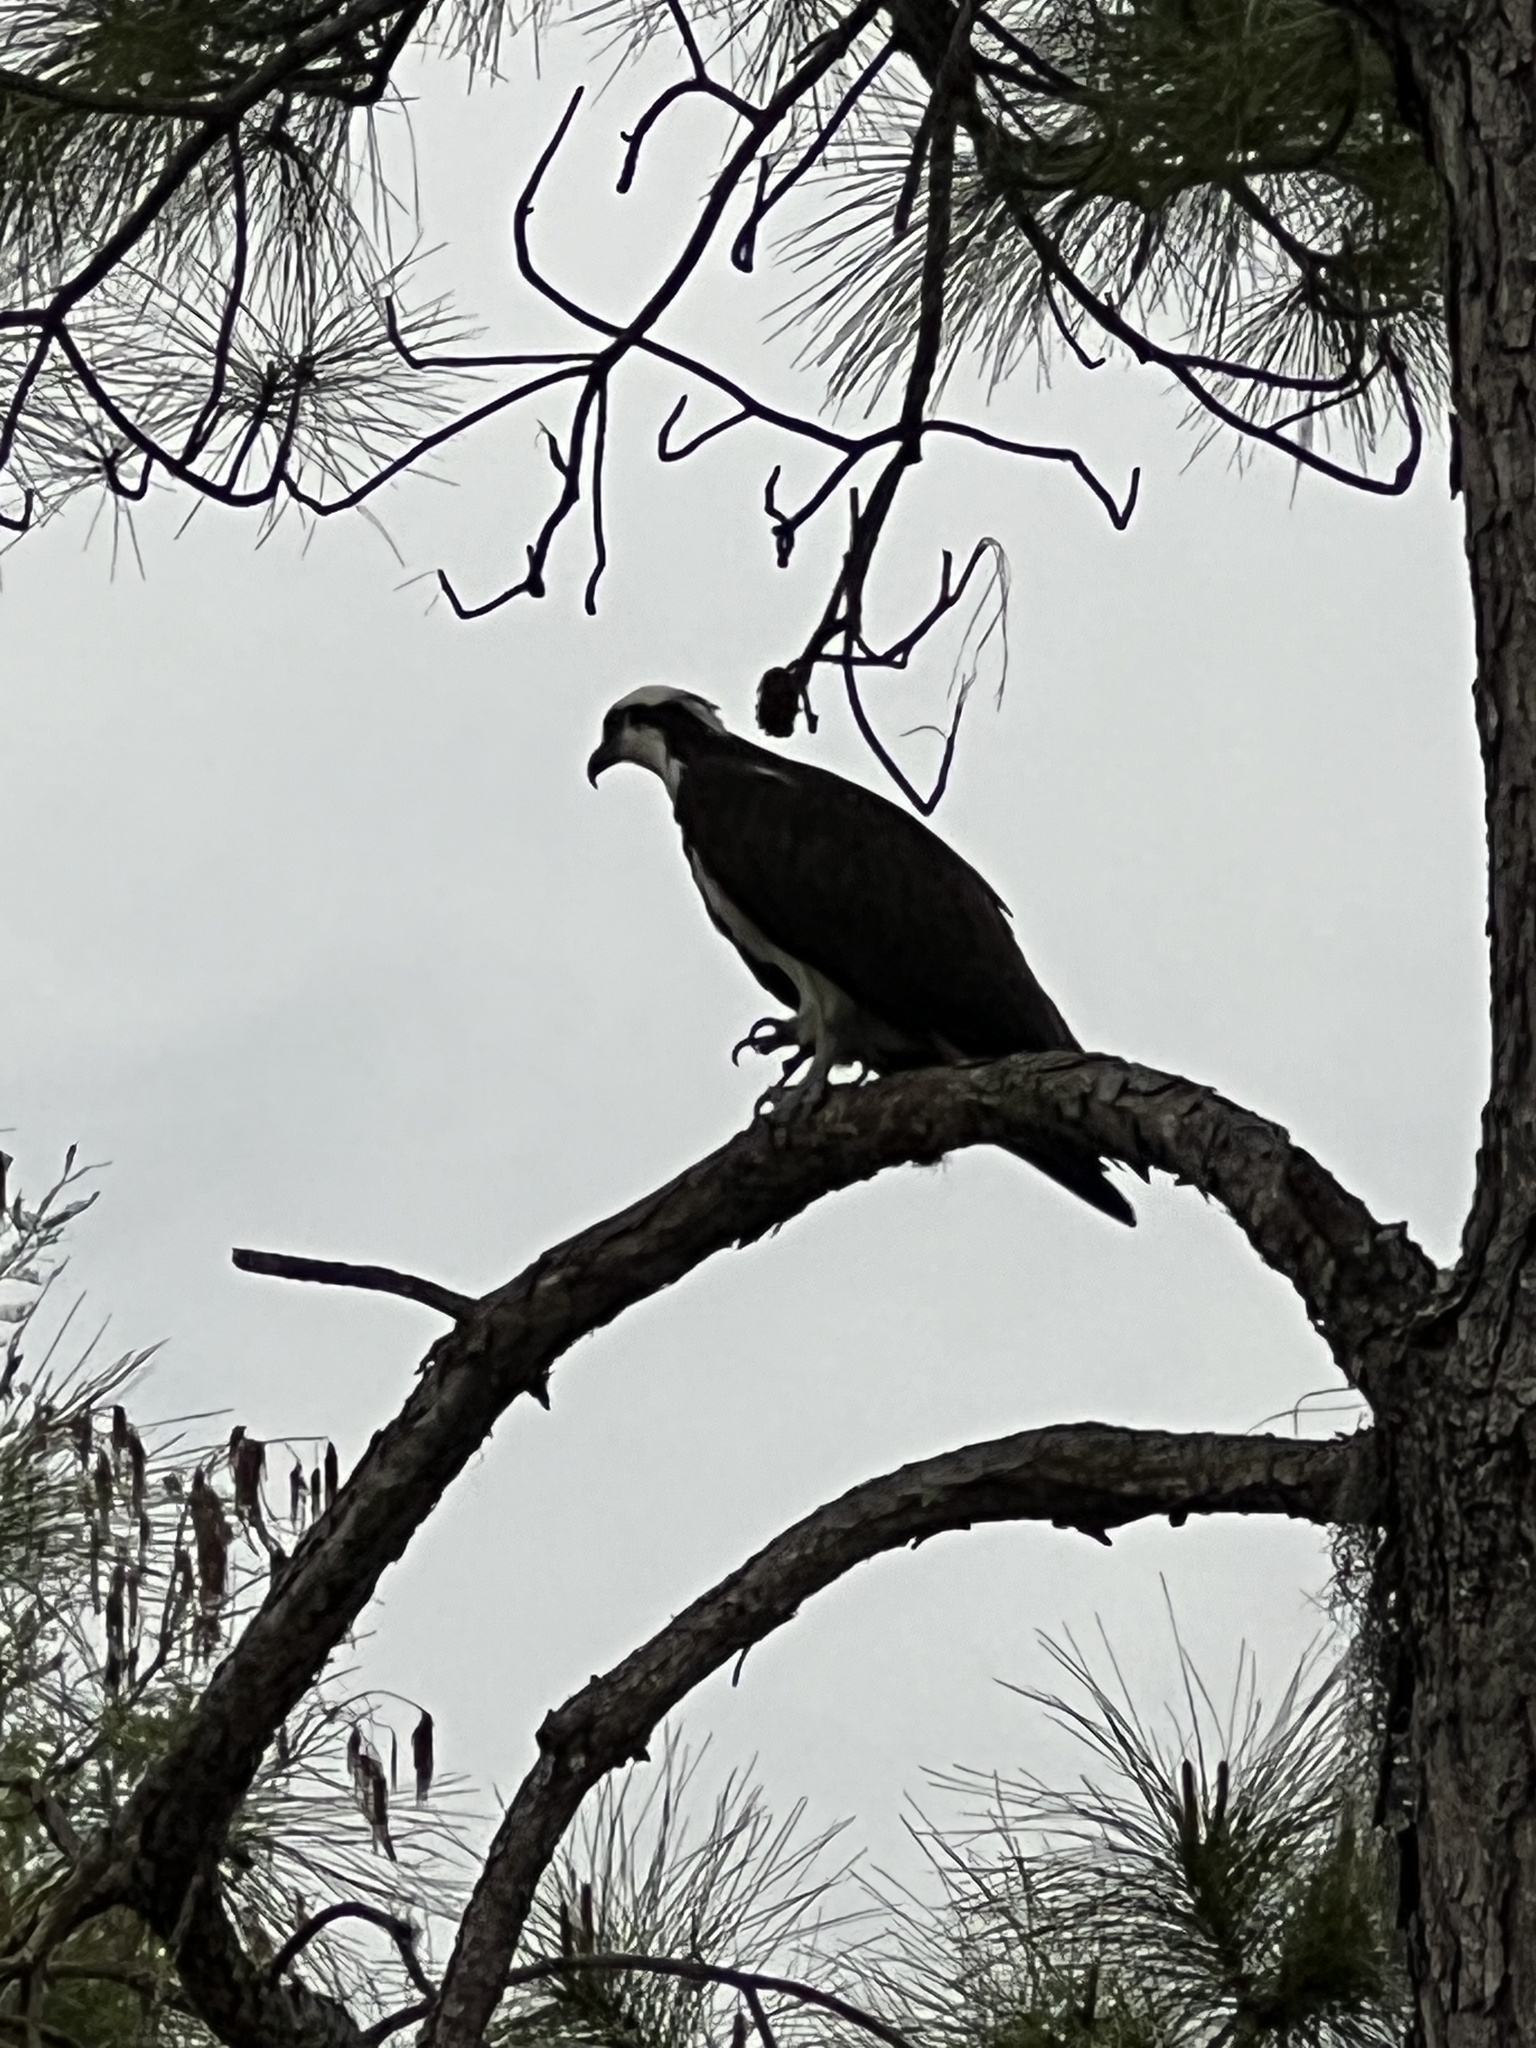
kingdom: Animalia
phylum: Chordata
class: Aves
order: Accipitriformes
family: Pandionidae
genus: Pandion
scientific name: Pandion haliaetus
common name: Osprey
